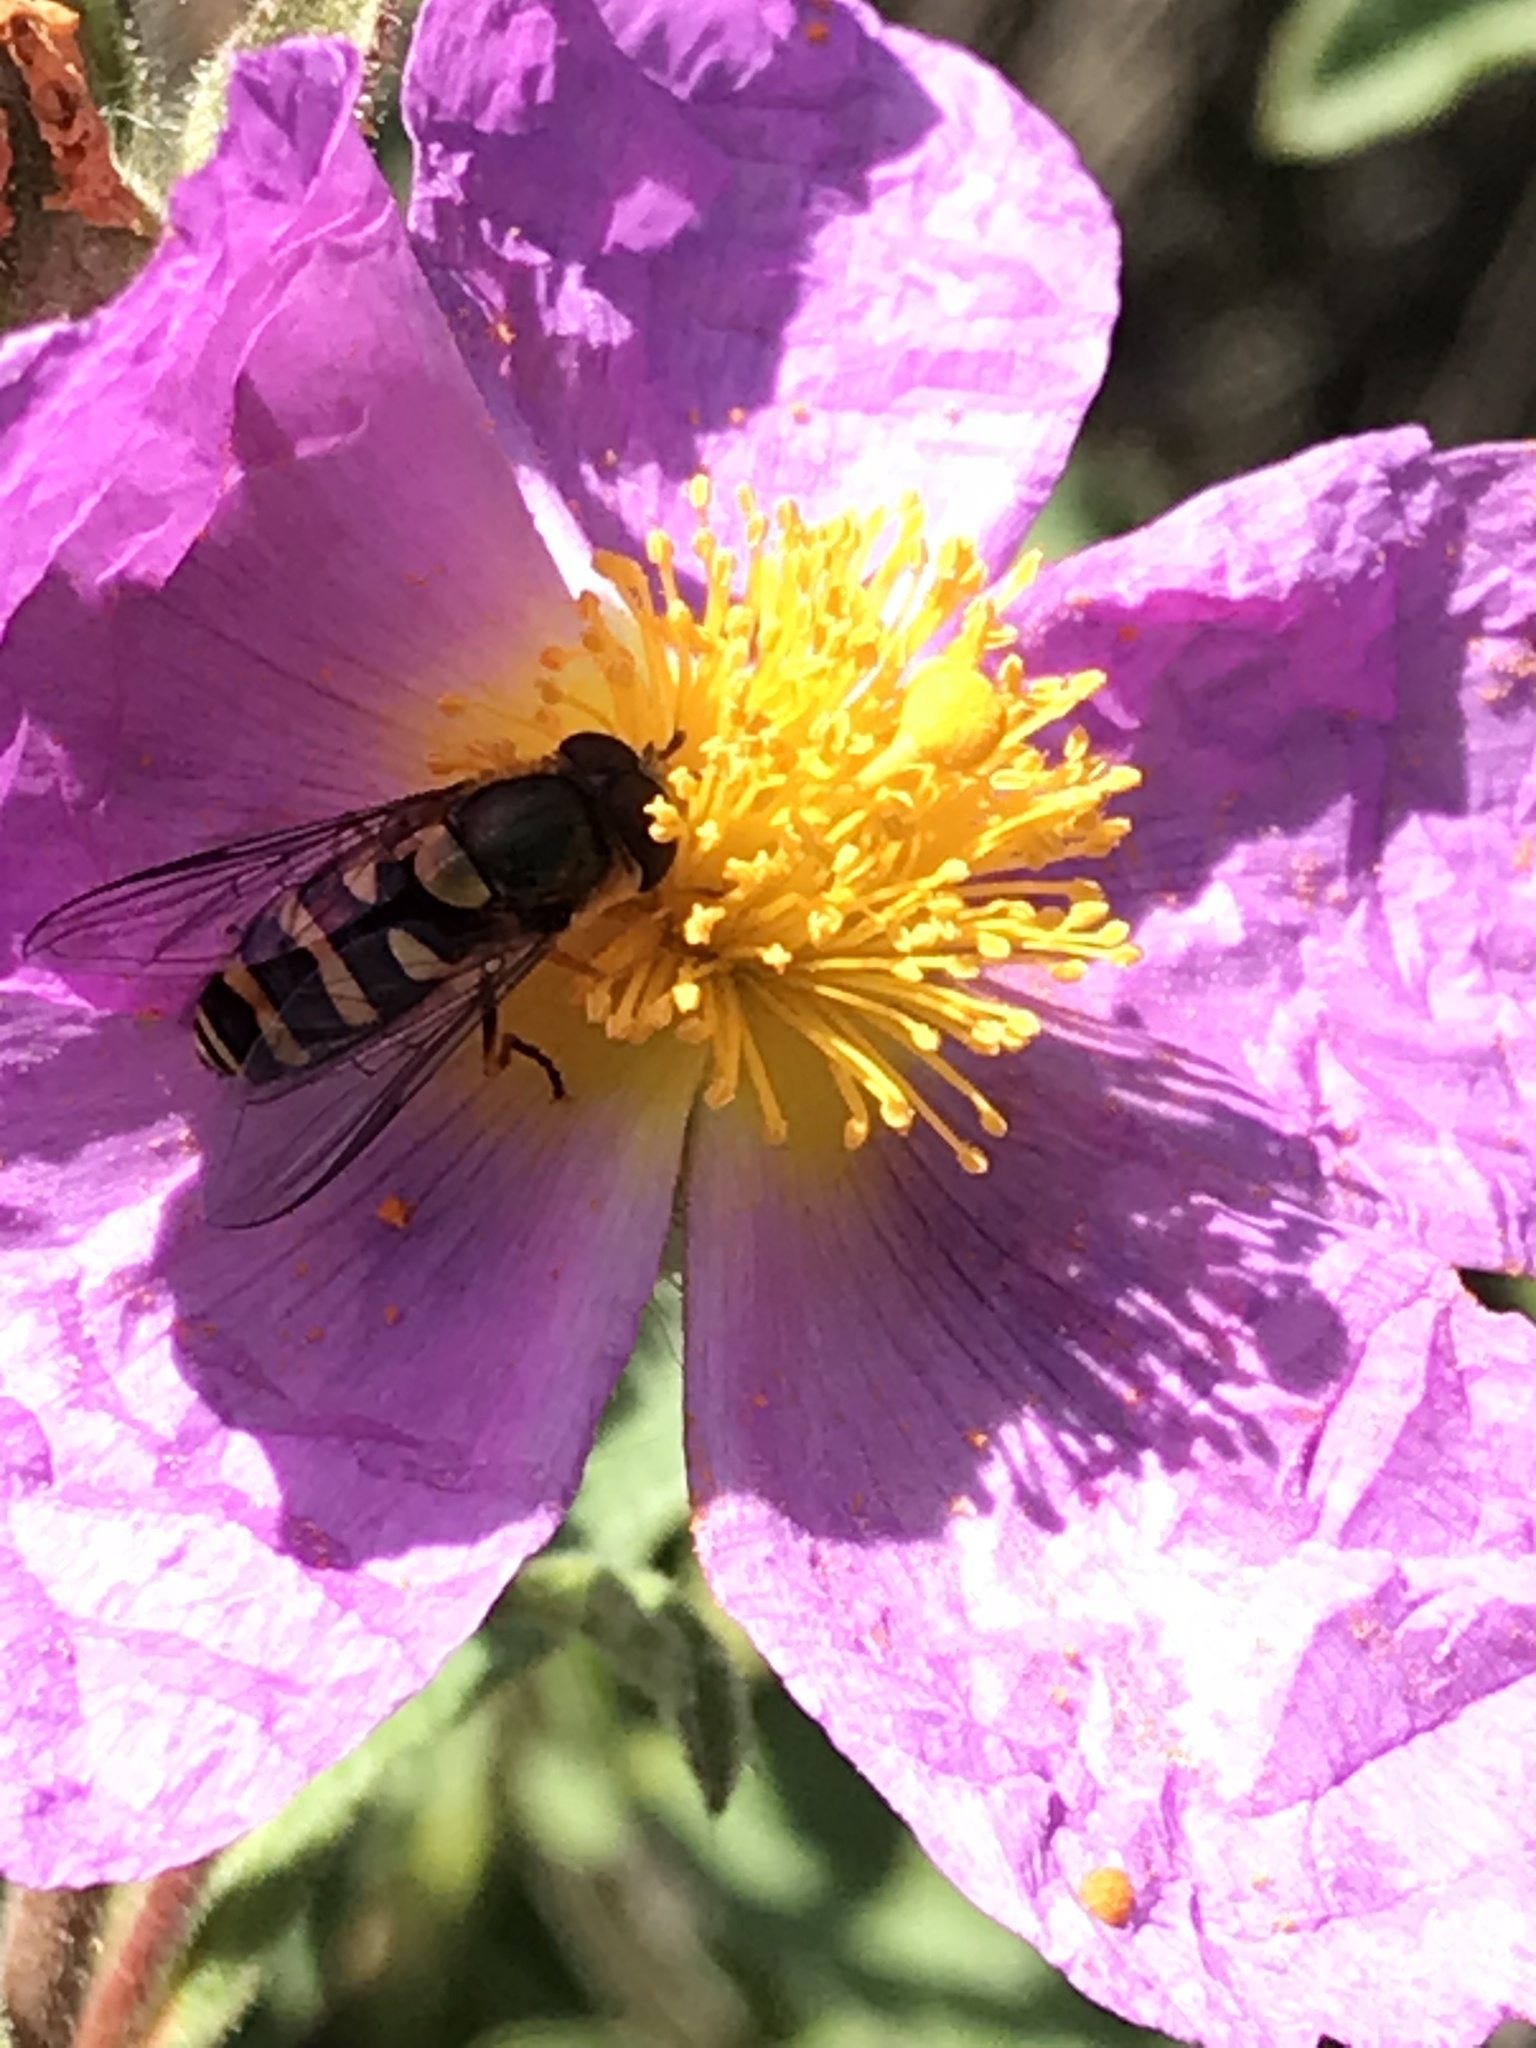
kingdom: Animalia
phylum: Arthropoda
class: Insecta
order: Diptera
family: Syrphidae
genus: Syrphus
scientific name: Syrphus opinator
